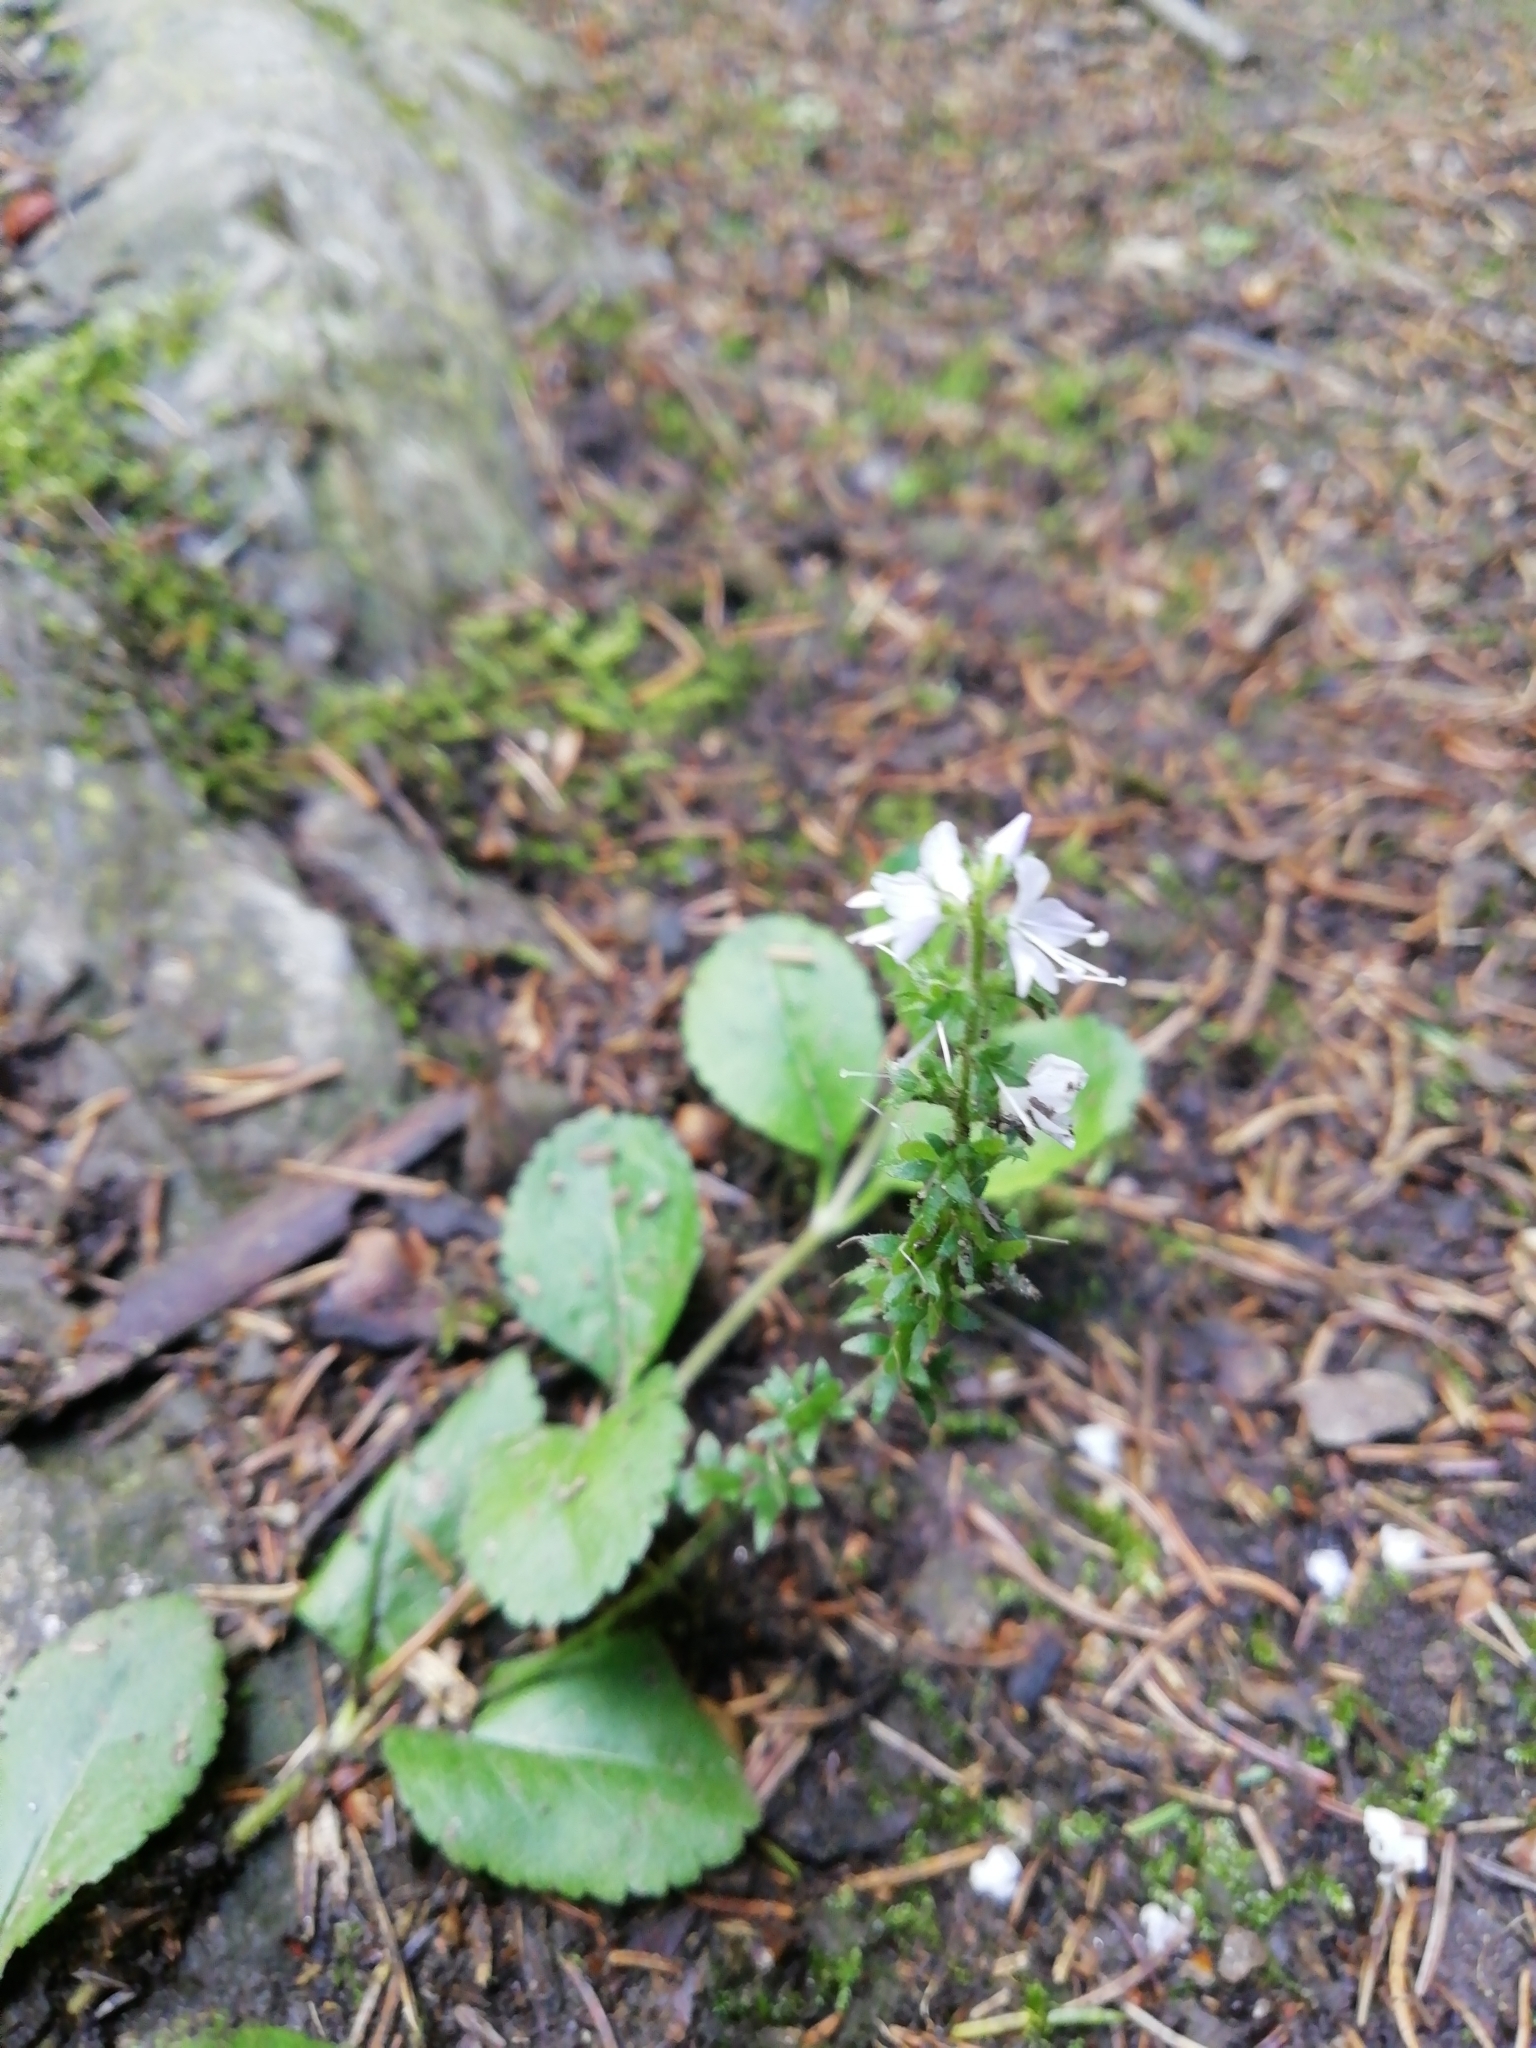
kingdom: Plantae
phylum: Tracheophyta
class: Magnoliopsida
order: Lamiales
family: Plantaginaceae
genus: Veronica
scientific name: Veronica officinalis
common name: Common speedwell
